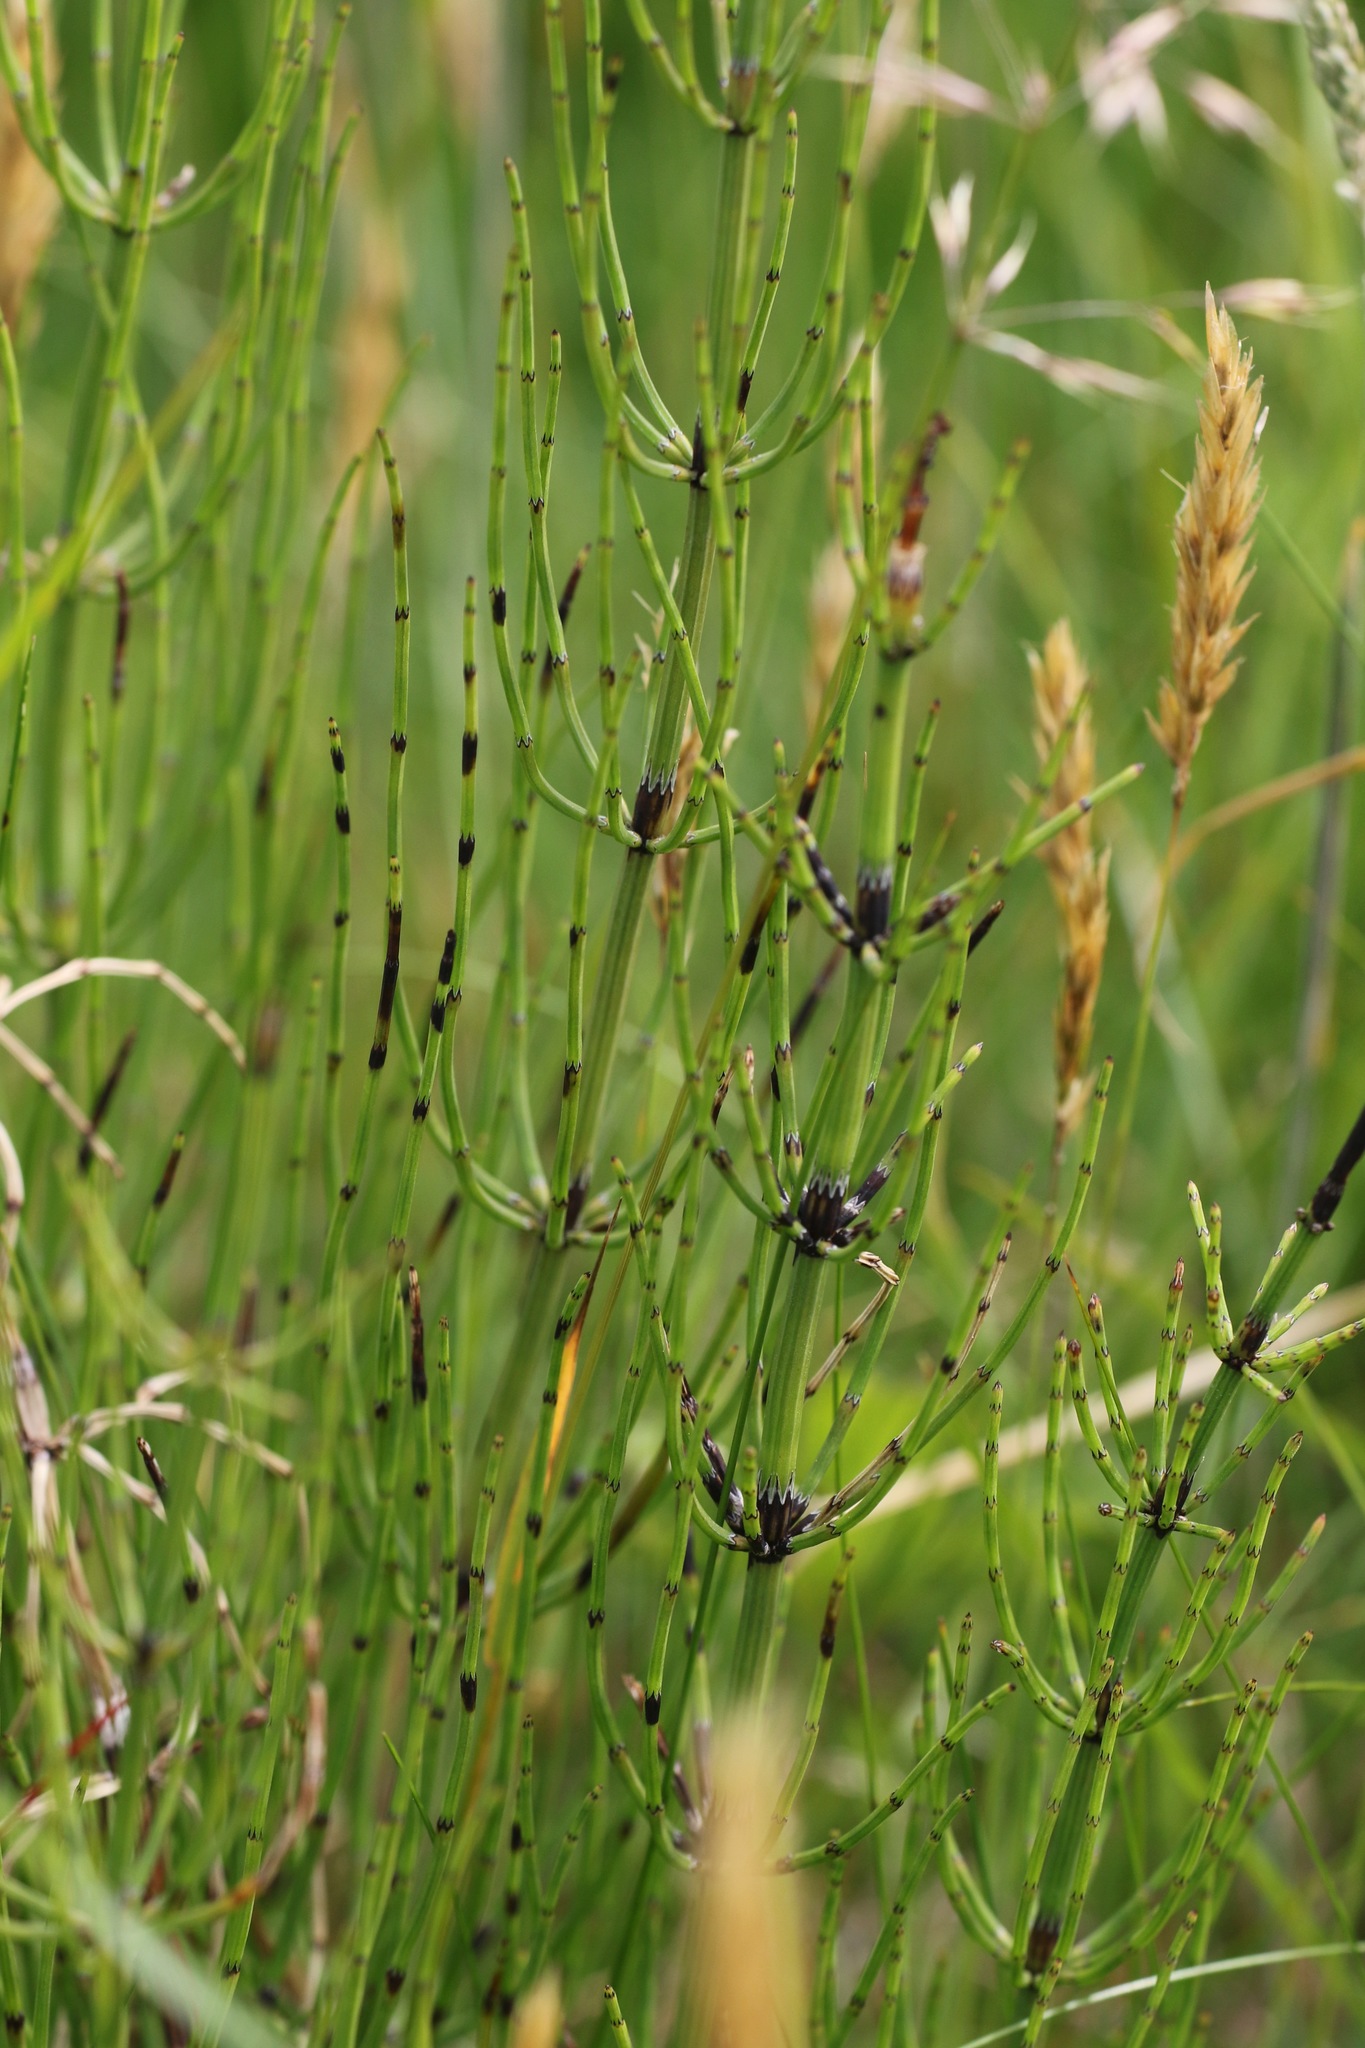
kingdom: Plantae
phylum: Tracheophyta
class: Polypodiopsida
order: Equisetales
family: Equisetaceae
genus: Equisetum
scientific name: Equisetum palustre
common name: Marsh horsetail
